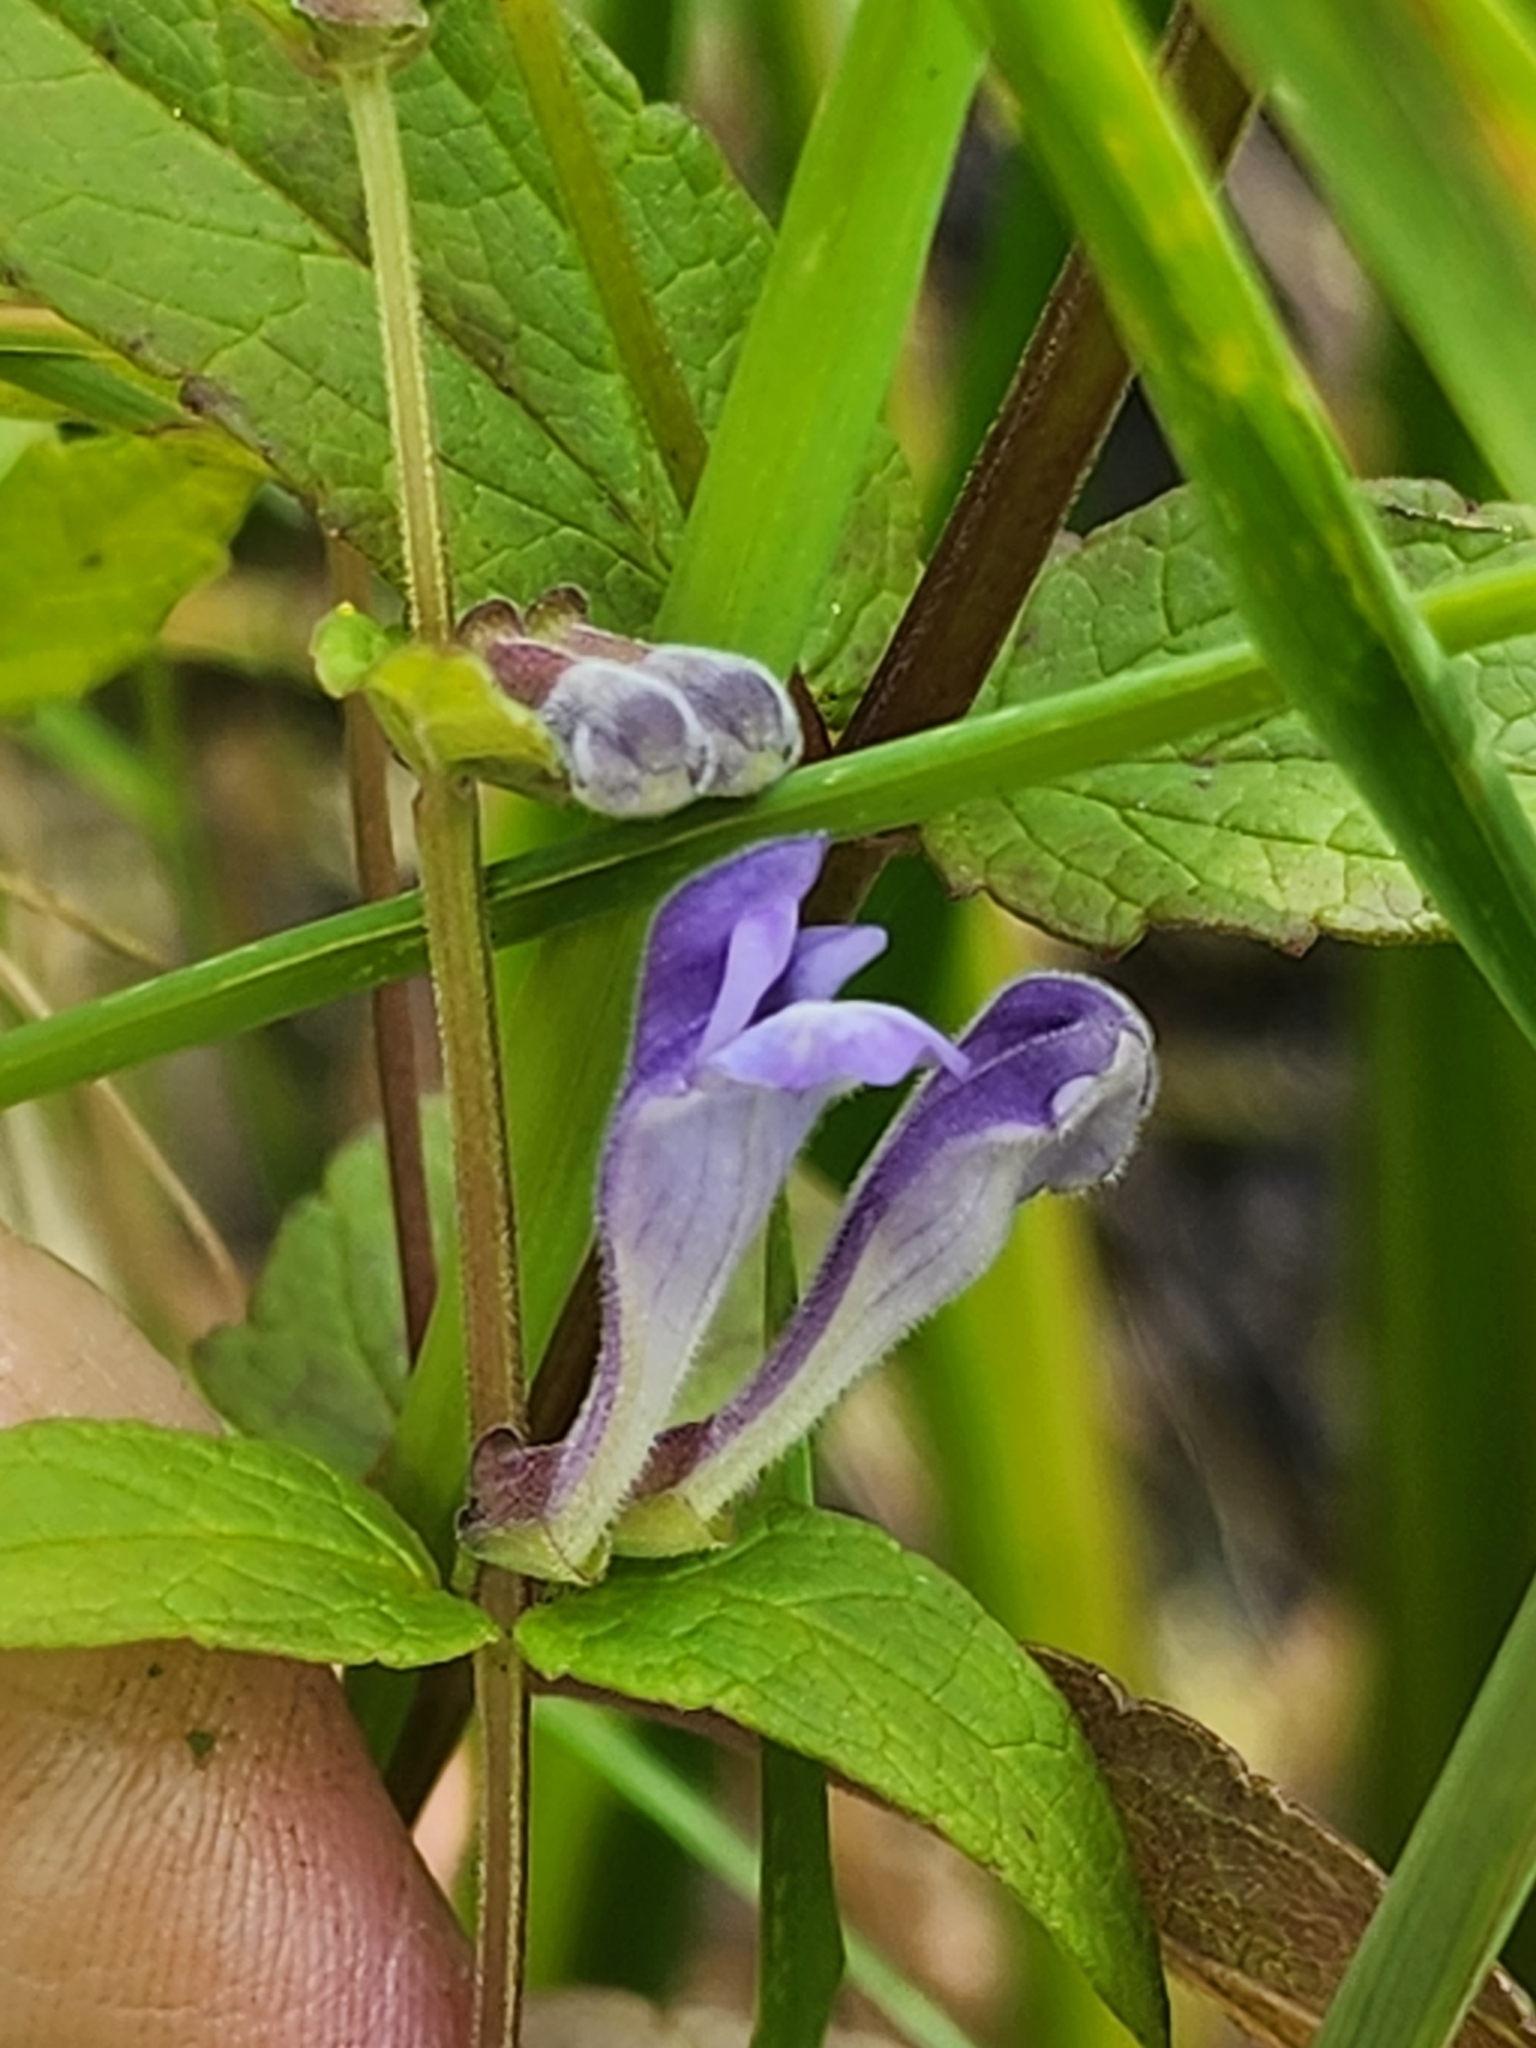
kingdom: Plantae
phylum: Tracheophyta
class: Magnoliopsida
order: Lamiales
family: Lamiaceae
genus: Scutellaria
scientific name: Scutellaria galericulata
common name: Skullcap
